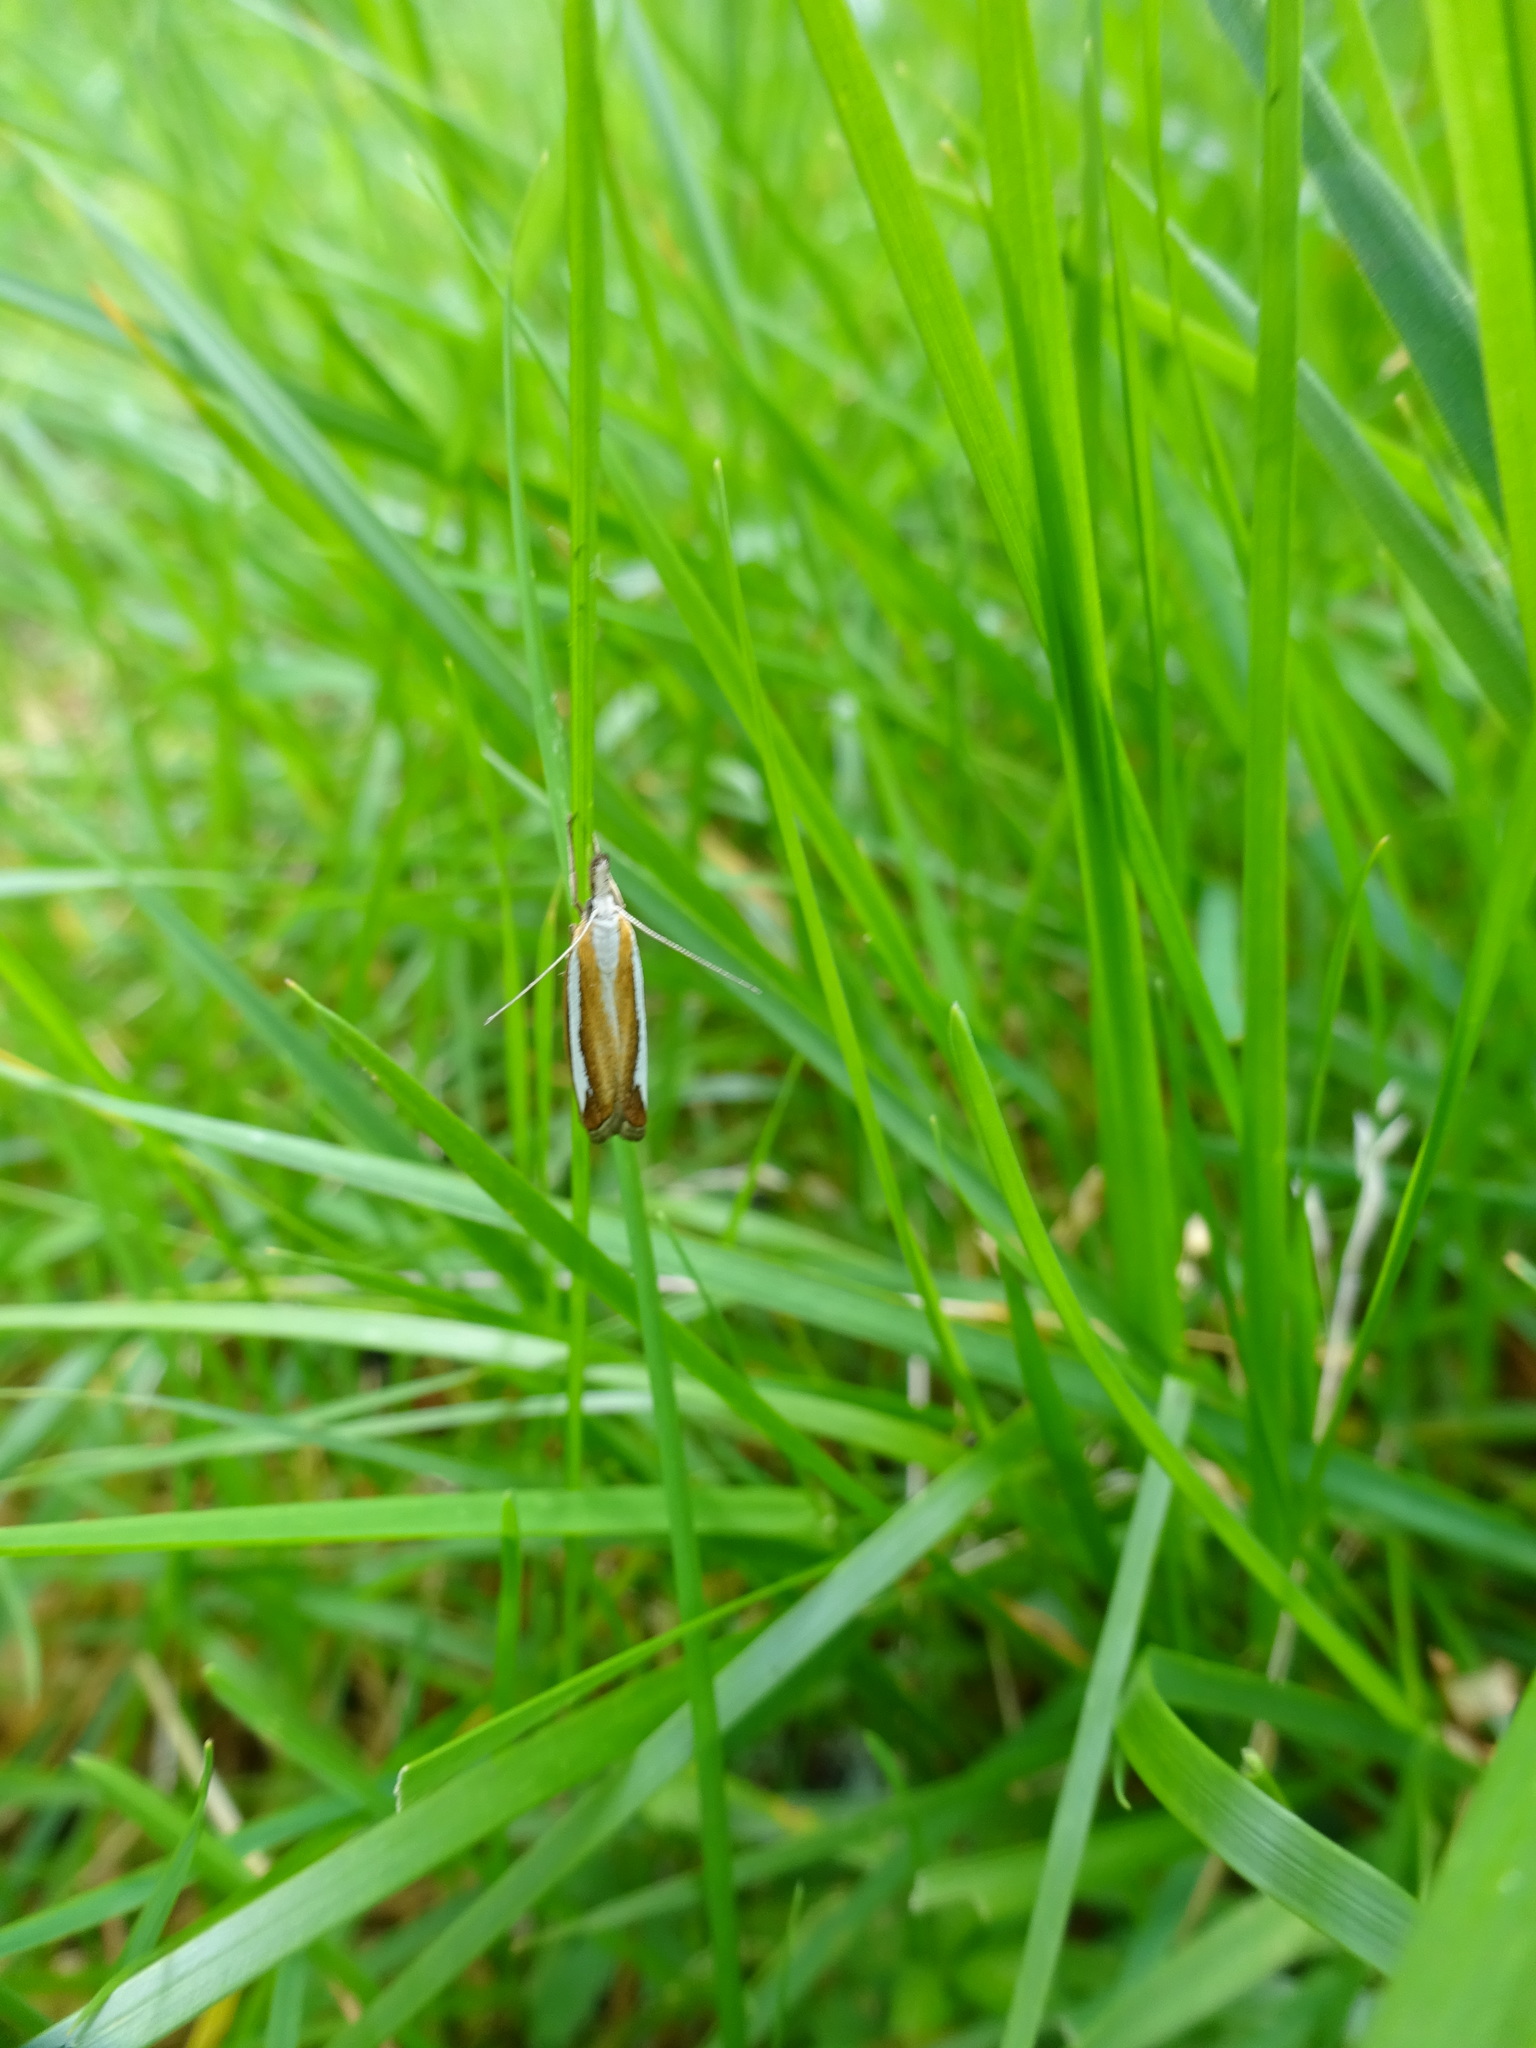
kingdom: Animalia
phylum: Arthropoda
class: Insecta
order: Lepidoptera
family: Crambidae
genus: Crambus
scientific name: Crambus pascuella
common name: Inlaid grass-veneer
